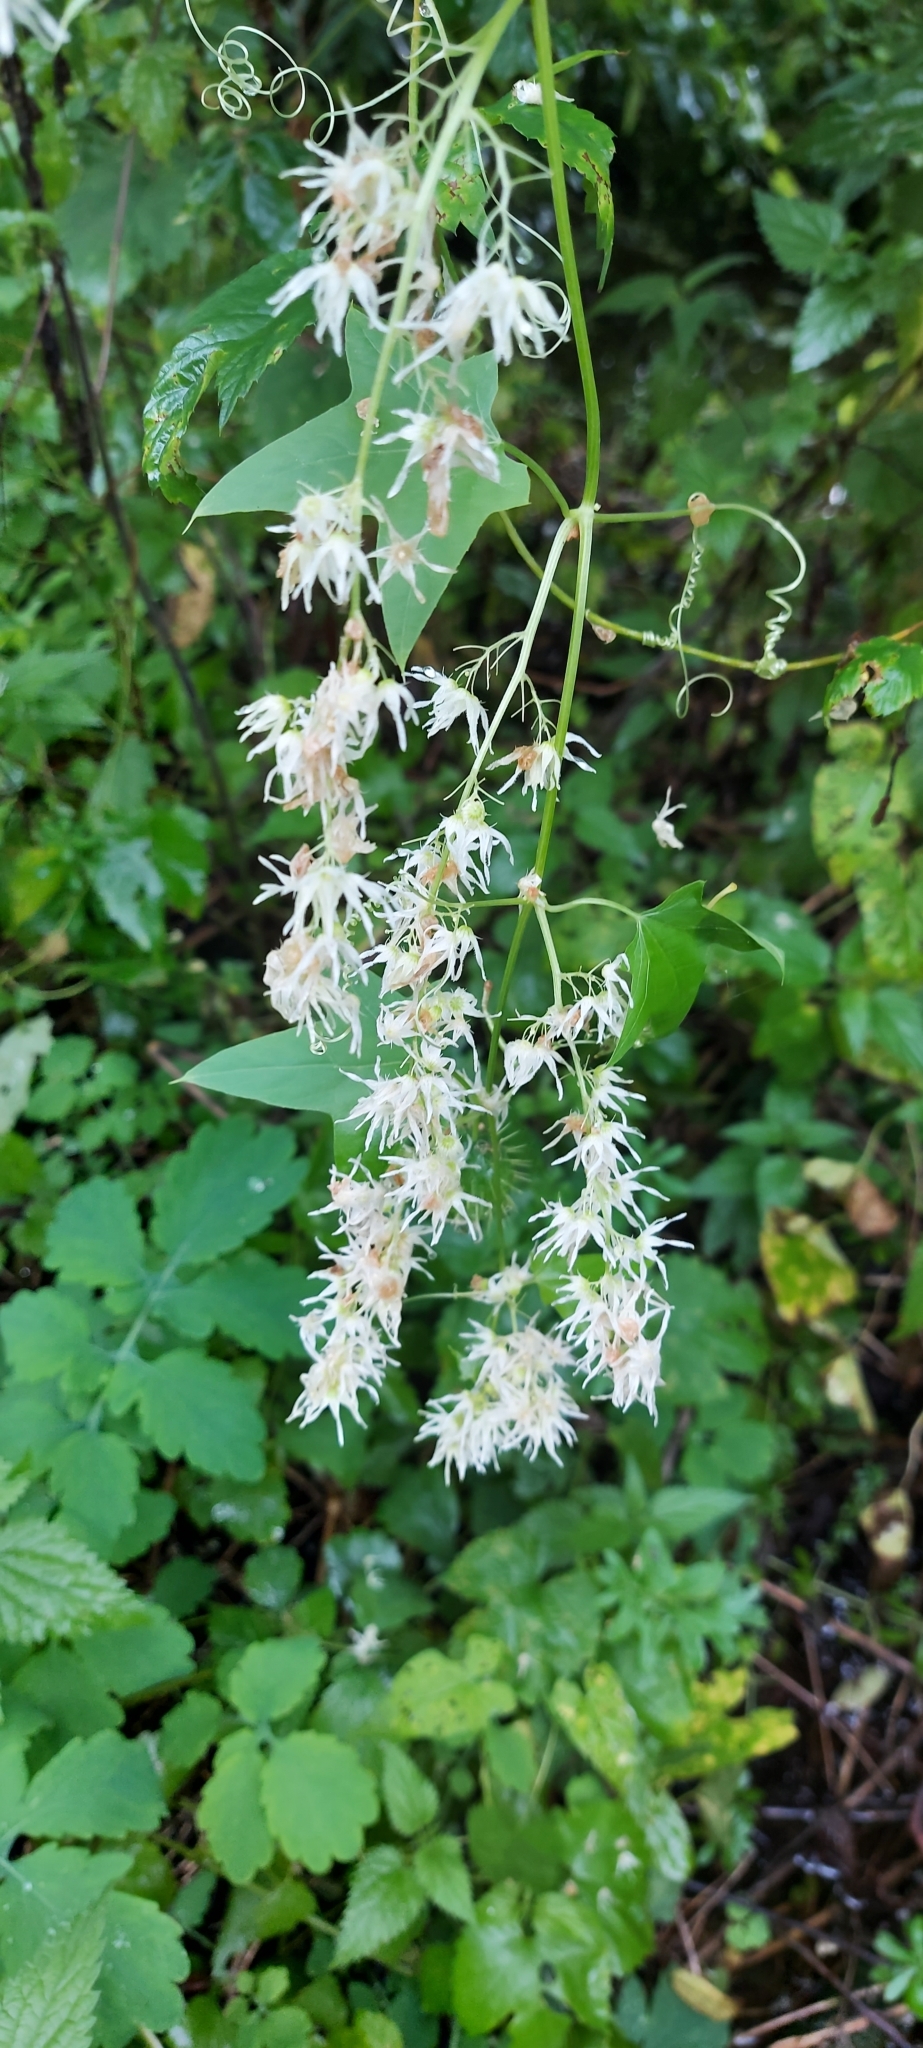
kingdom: Plantae
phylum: Tracheophyta
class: Magnoliopsida
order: Cucurbitales
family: Cucurbitaceae
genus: Echinocystis
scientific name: Echinocystis lobata
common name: Wild cucumber
